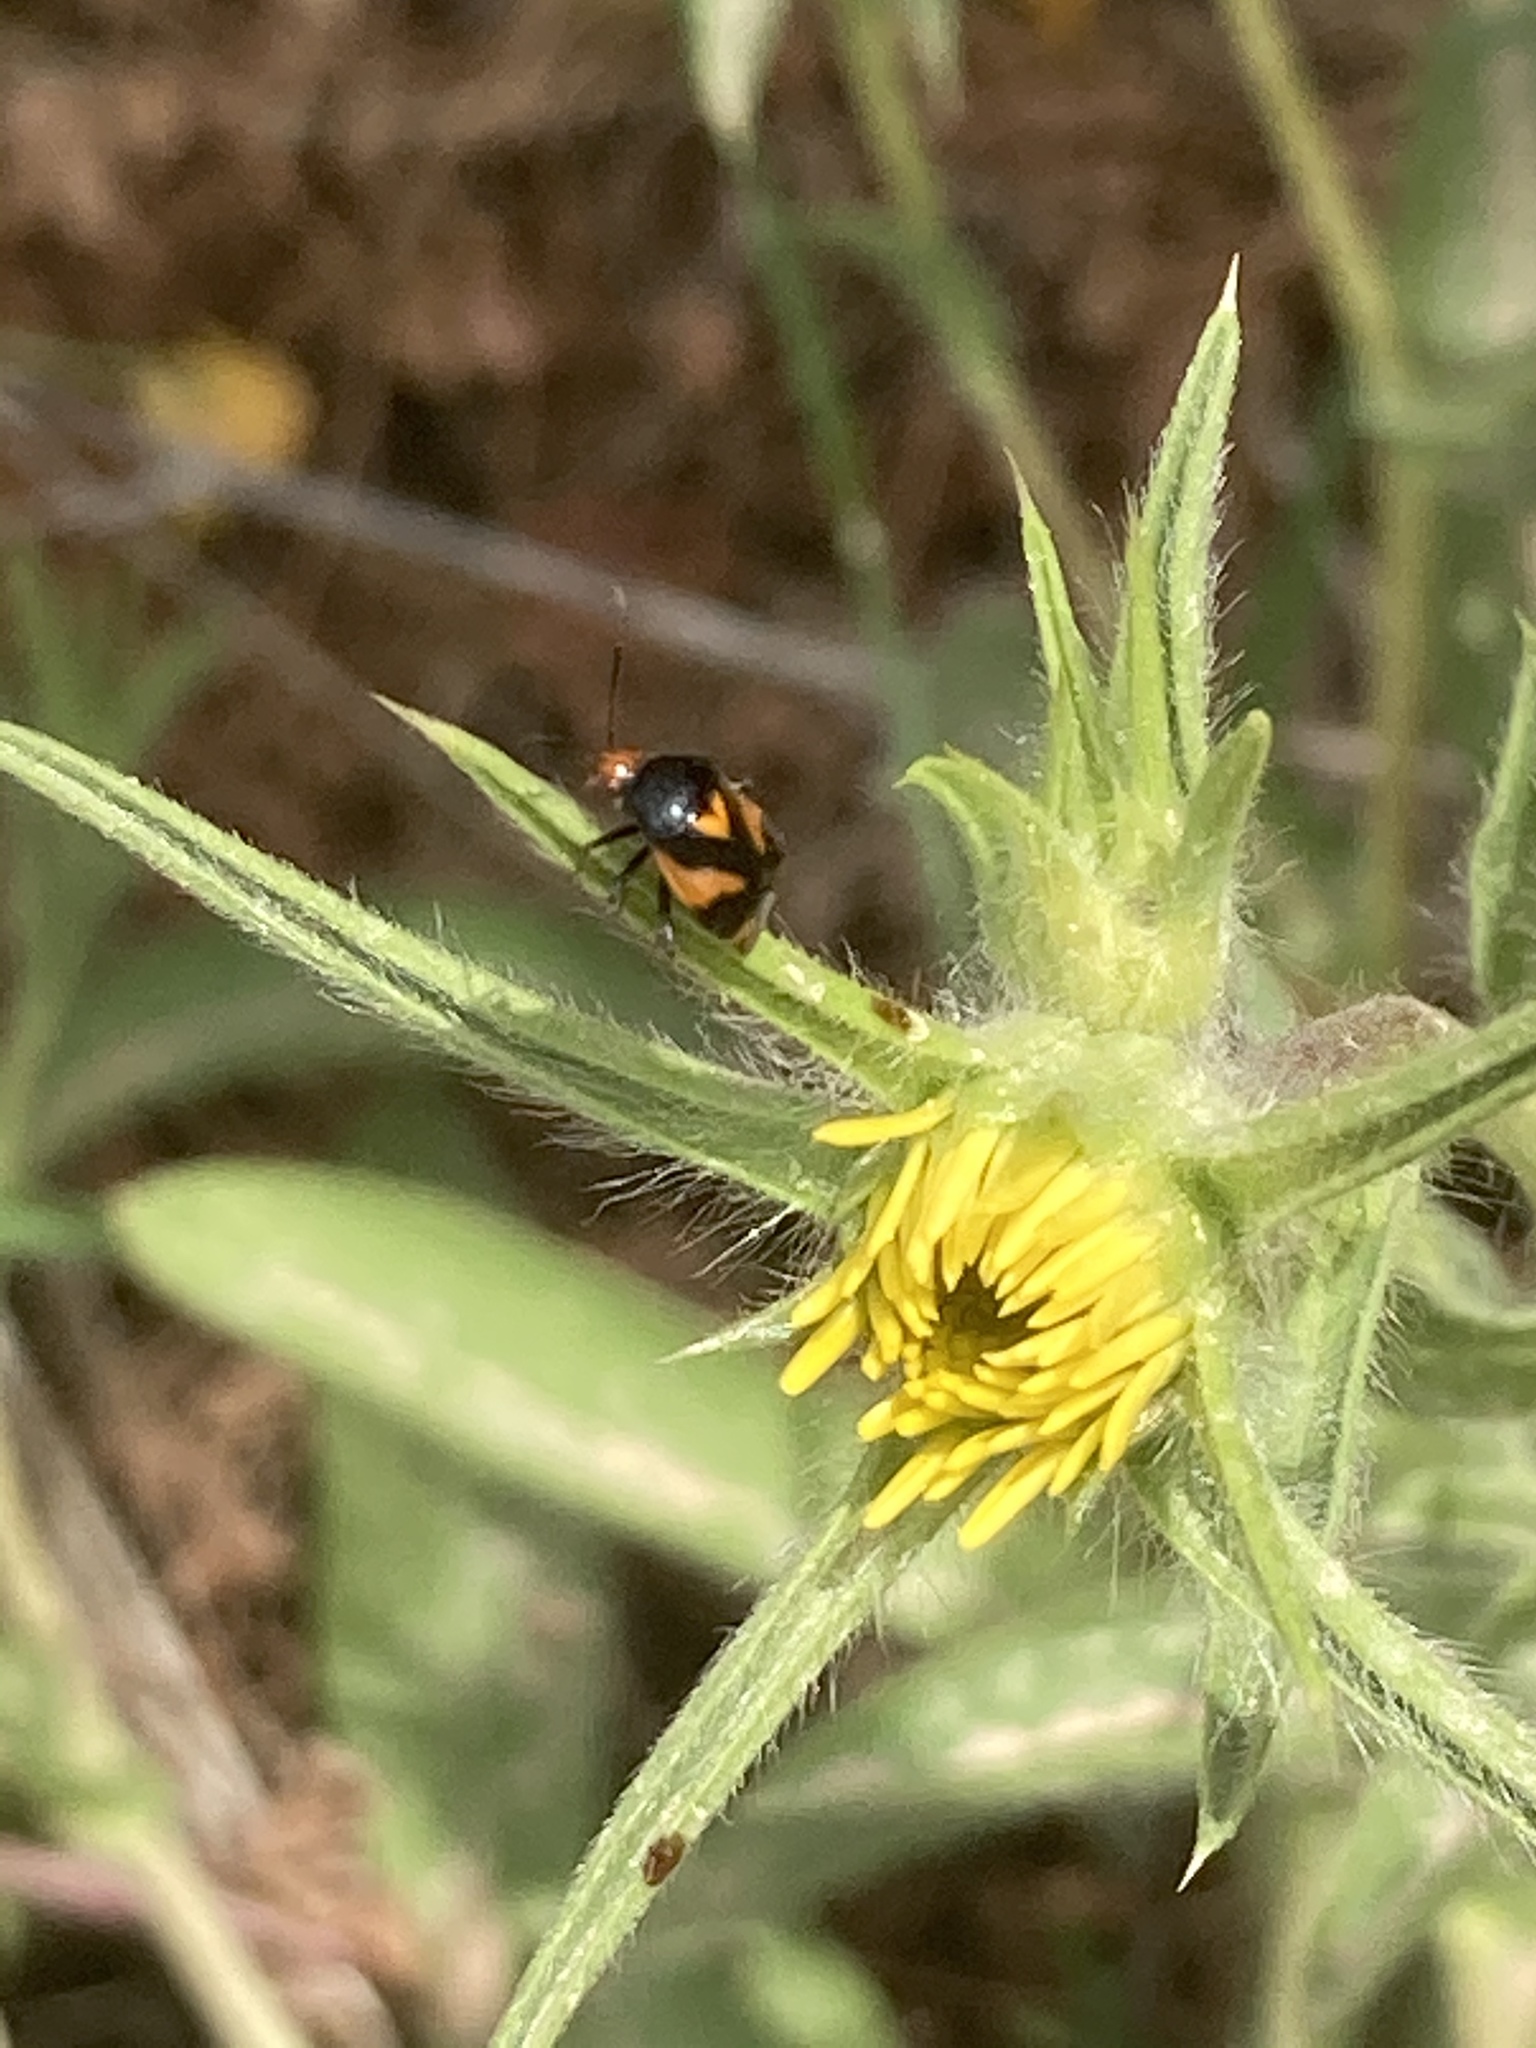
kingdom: Animalia
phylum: Arthropoda
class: Insecta
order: Hemiptera
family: Miridae
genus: Deraeocoris
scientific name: Deraeocoris schach
